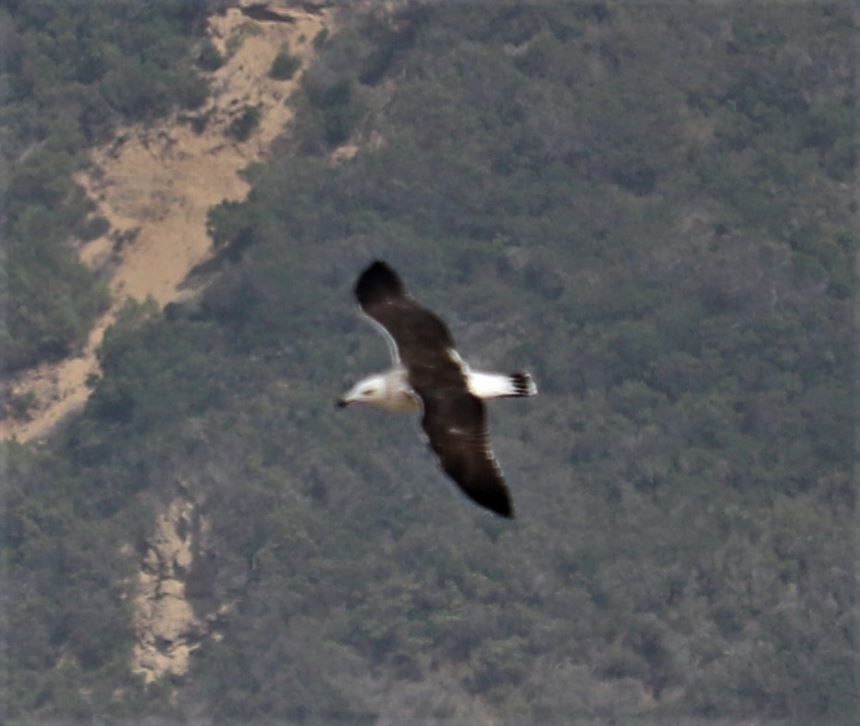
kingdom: Animalia
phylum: Chordata
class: Aves
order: Charadriiformes
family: Laridae
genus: Larus
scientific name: Larus dominicanus
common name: Kelp gull
